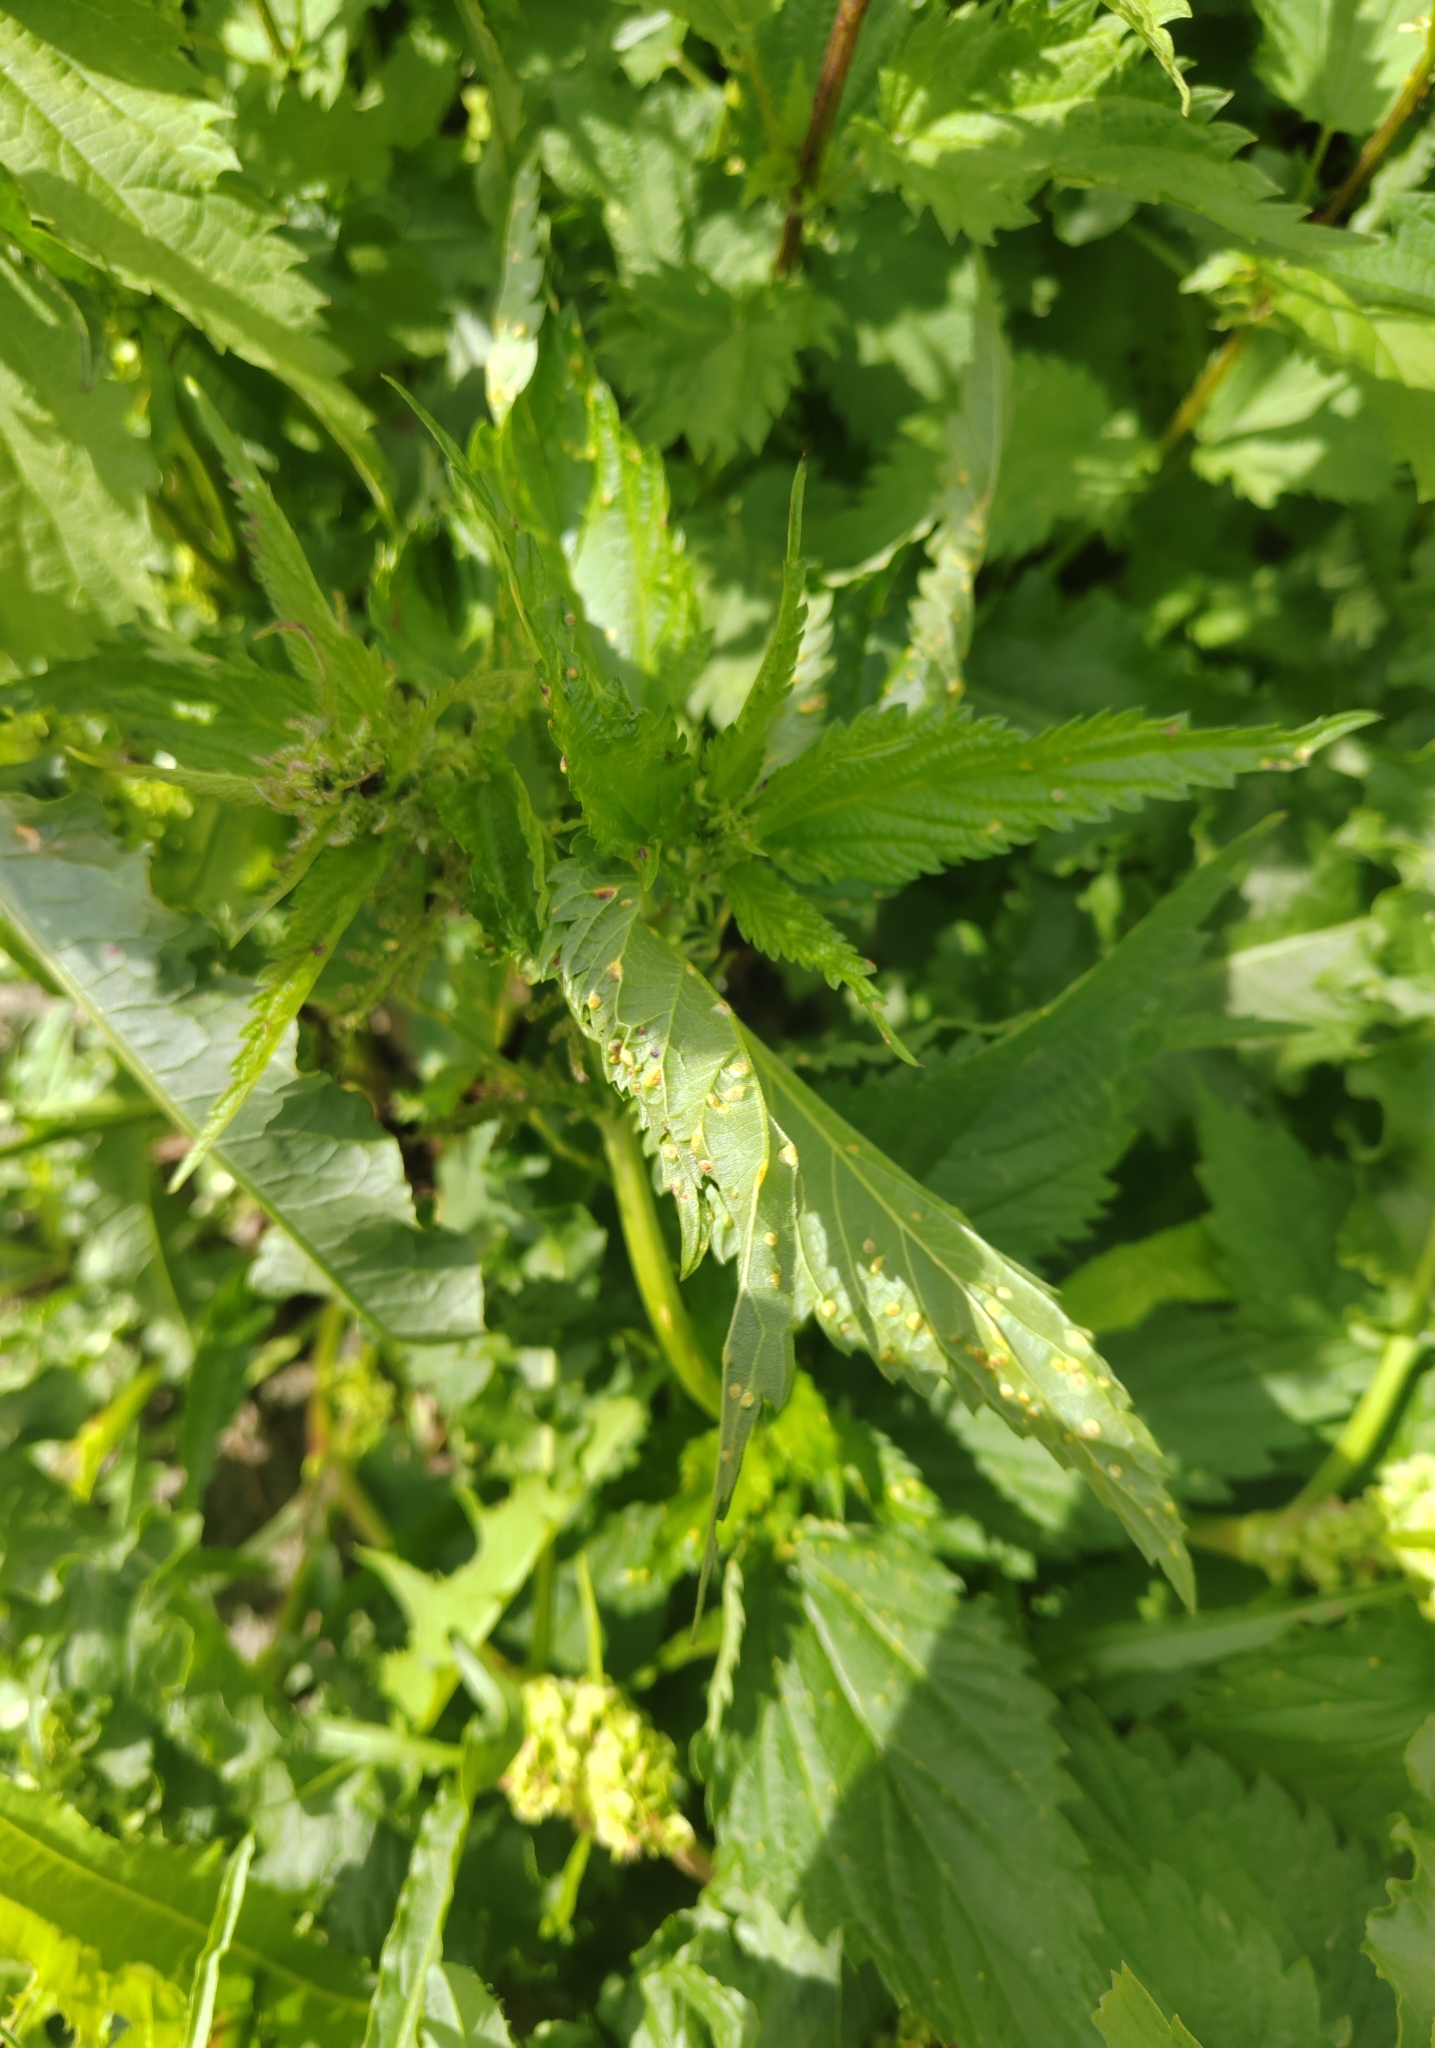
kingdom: Plantae
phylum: Tracheophyta
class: Magnoliopsida
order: Rosales
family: Urticaceae
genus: Urtica
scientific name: Urtica dioica
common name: Common nettle
